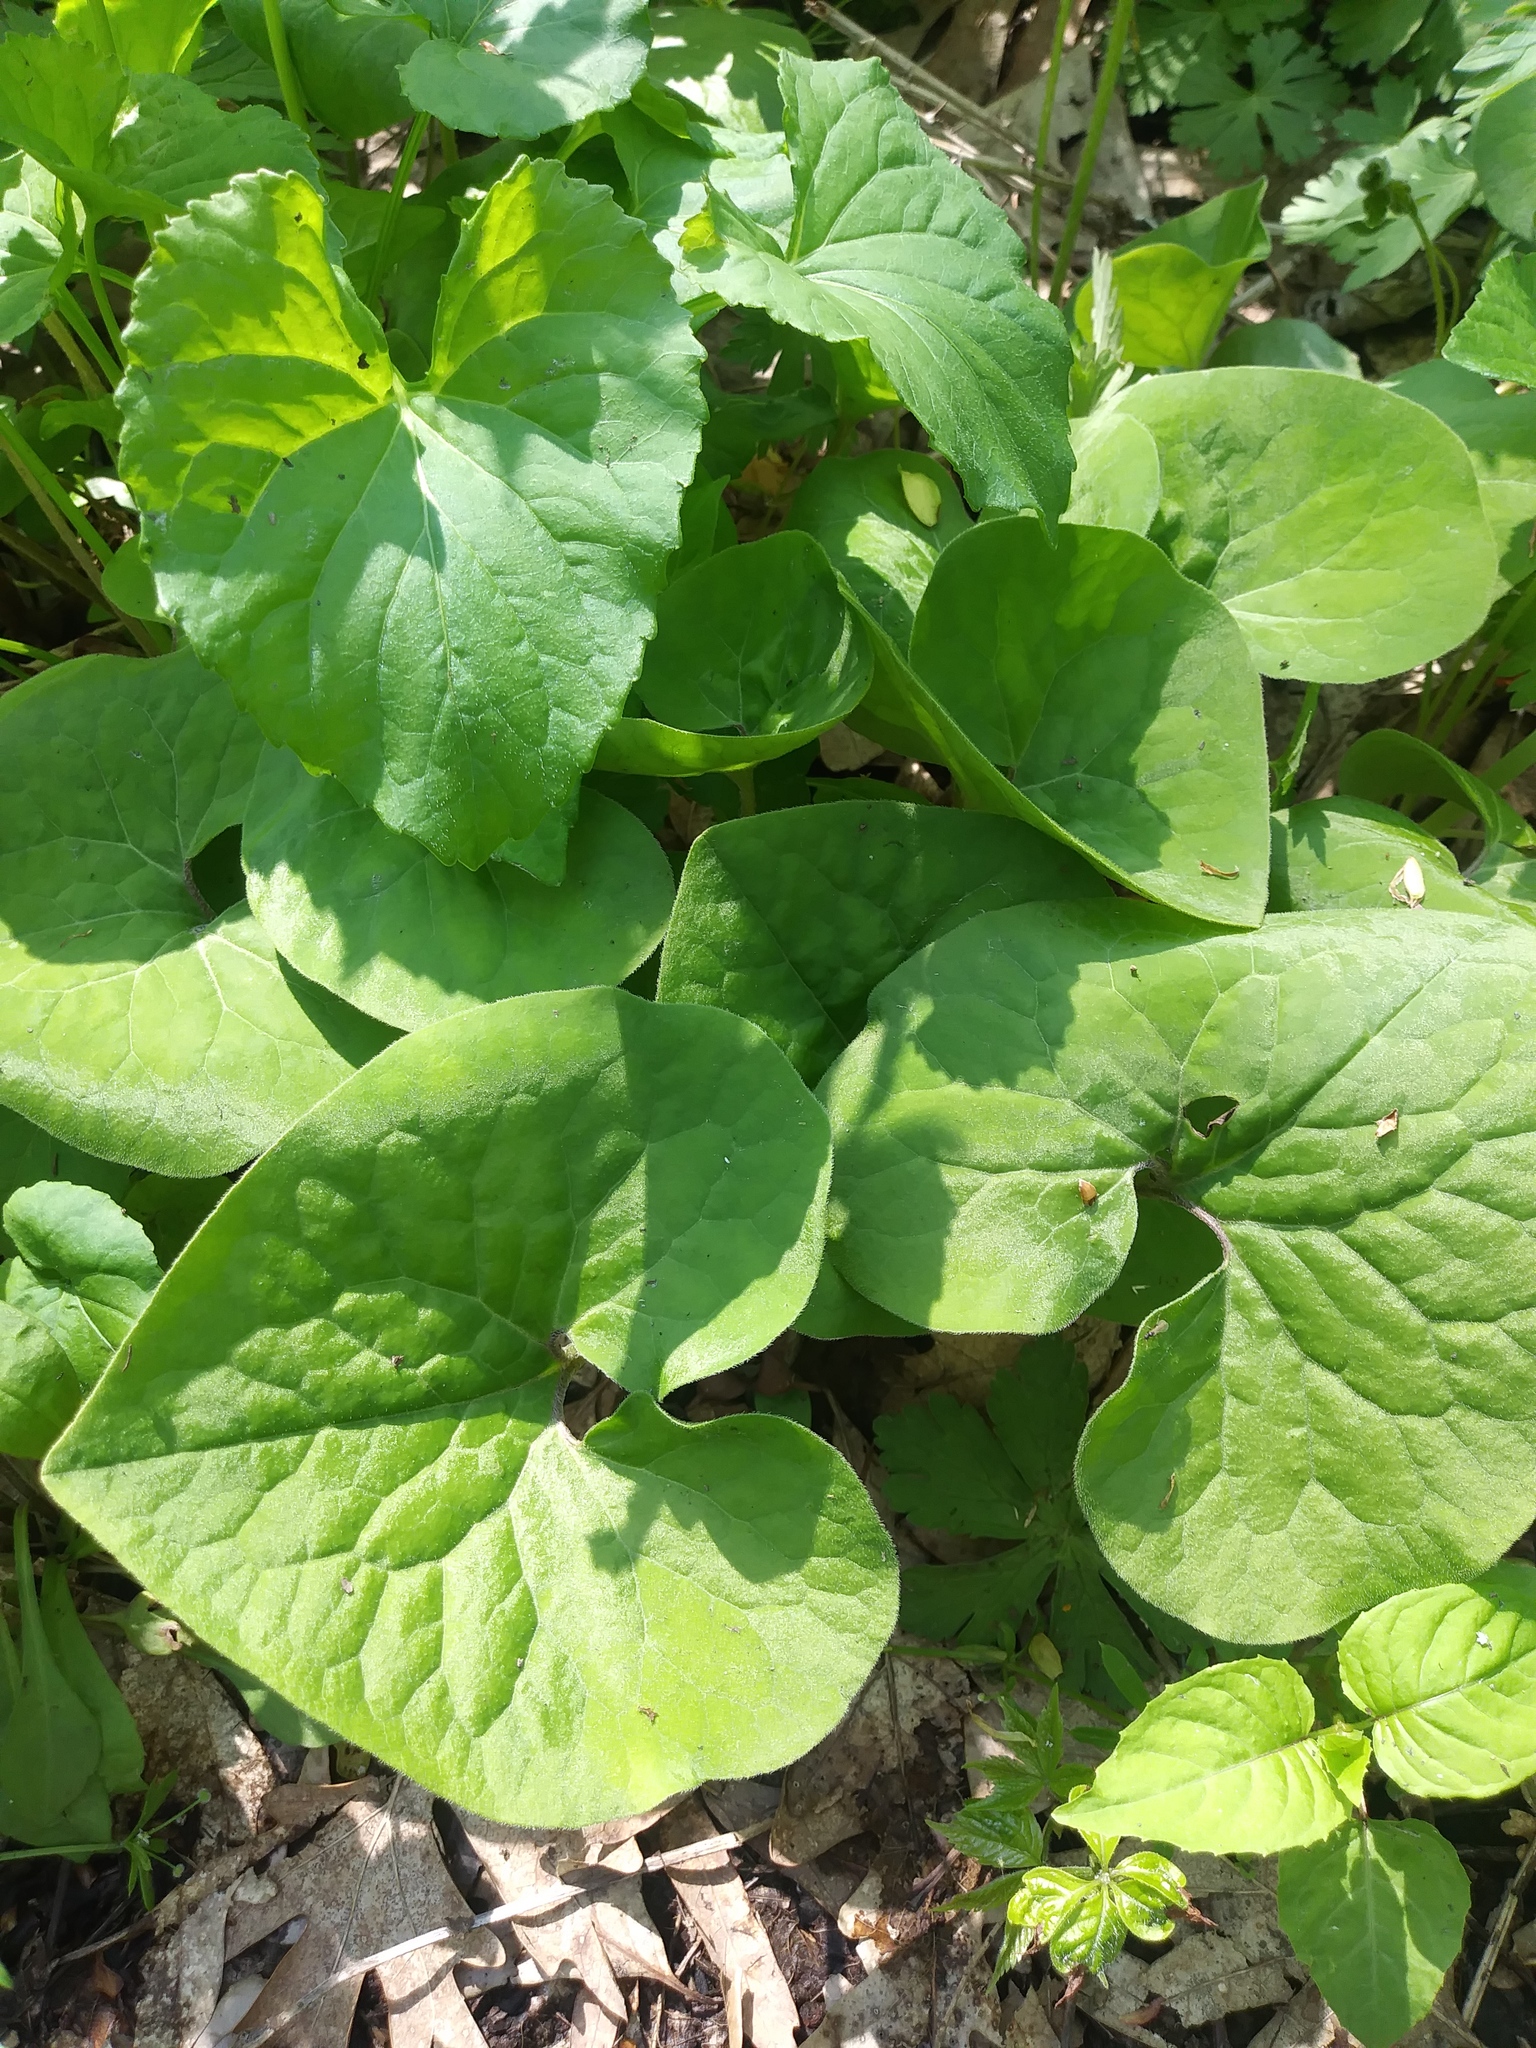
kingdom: Plantae
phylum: Tracheophyta
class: Magnoliopsida
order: Piperales
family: Aristolochiaceae
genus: Asarum
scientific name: Asarum canadense
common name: Wild ginger
